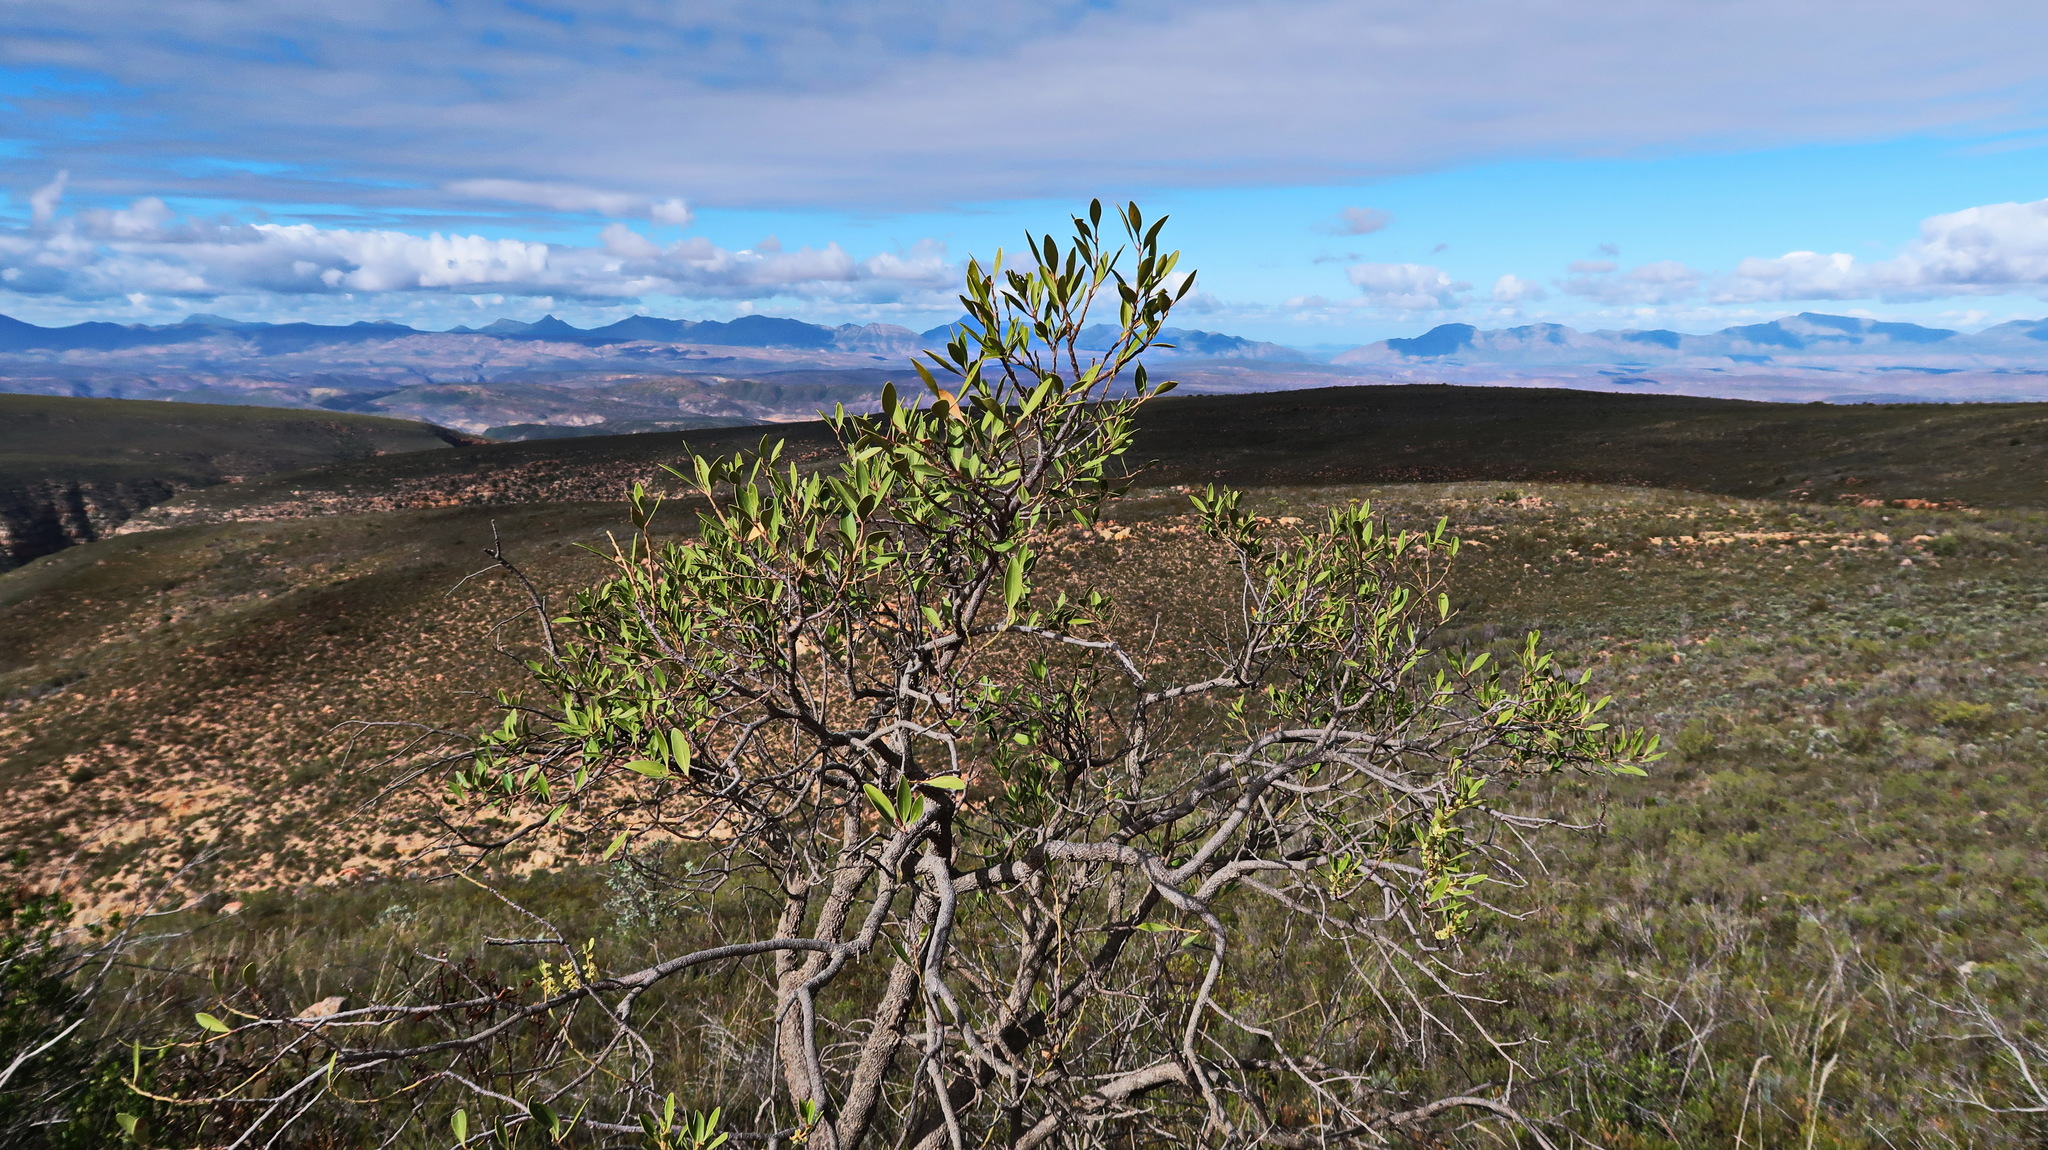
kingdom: Plantae
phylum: Tracheophyta
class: Magnoliopsida
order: Celastrales
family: Celastraceae
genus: Gymnosporia
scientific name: Gymnosporia laurina
